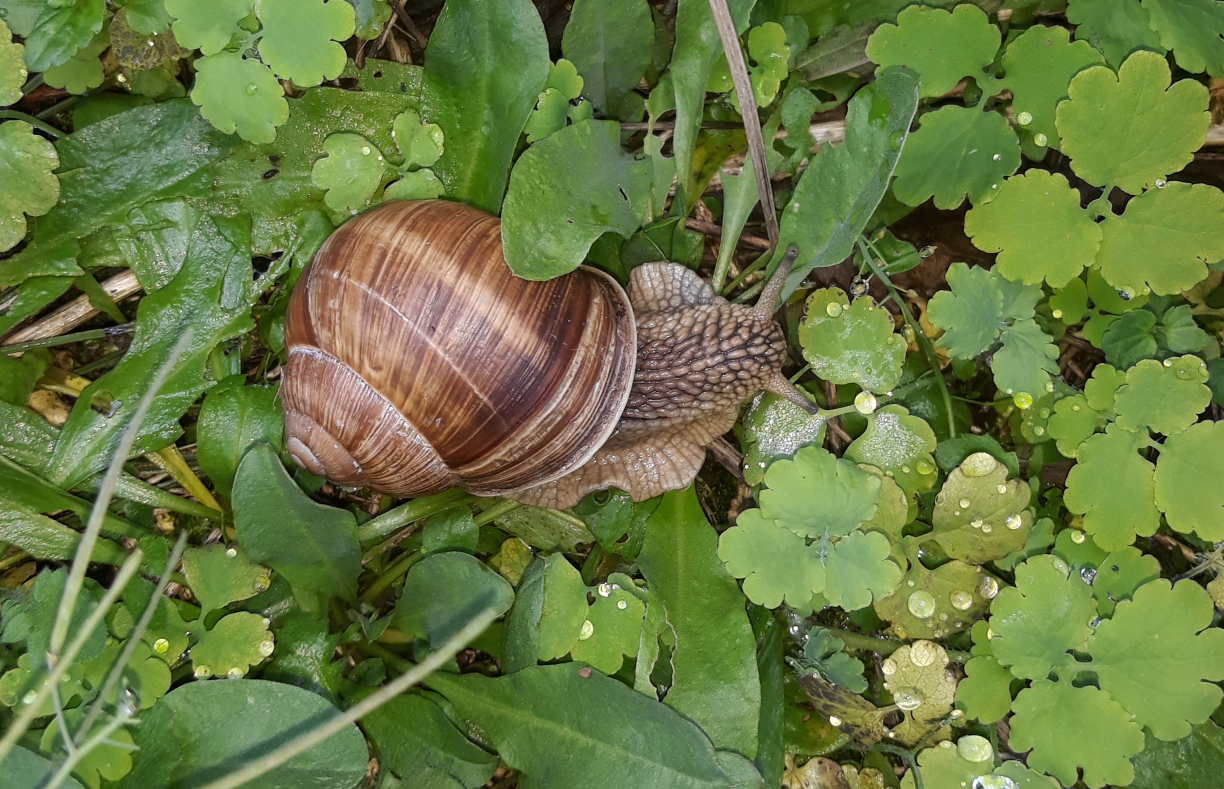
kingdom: Animalia
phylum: Mollusca
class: Gastropoda
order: Stylommatophora
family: Helicidae
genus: Helix
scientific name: Helix pomatia
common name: Roman snail
